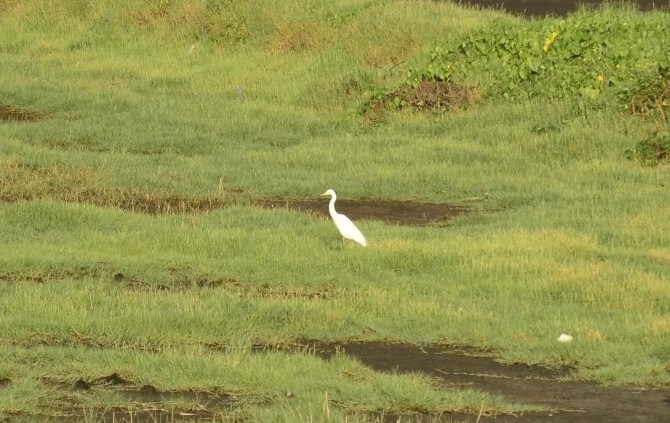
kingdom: Animalia
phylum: Chordata
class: Aves
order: Pelecaniformes
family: Ardeidae
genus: Ardea
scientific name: Ardea alba
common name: Great egret
